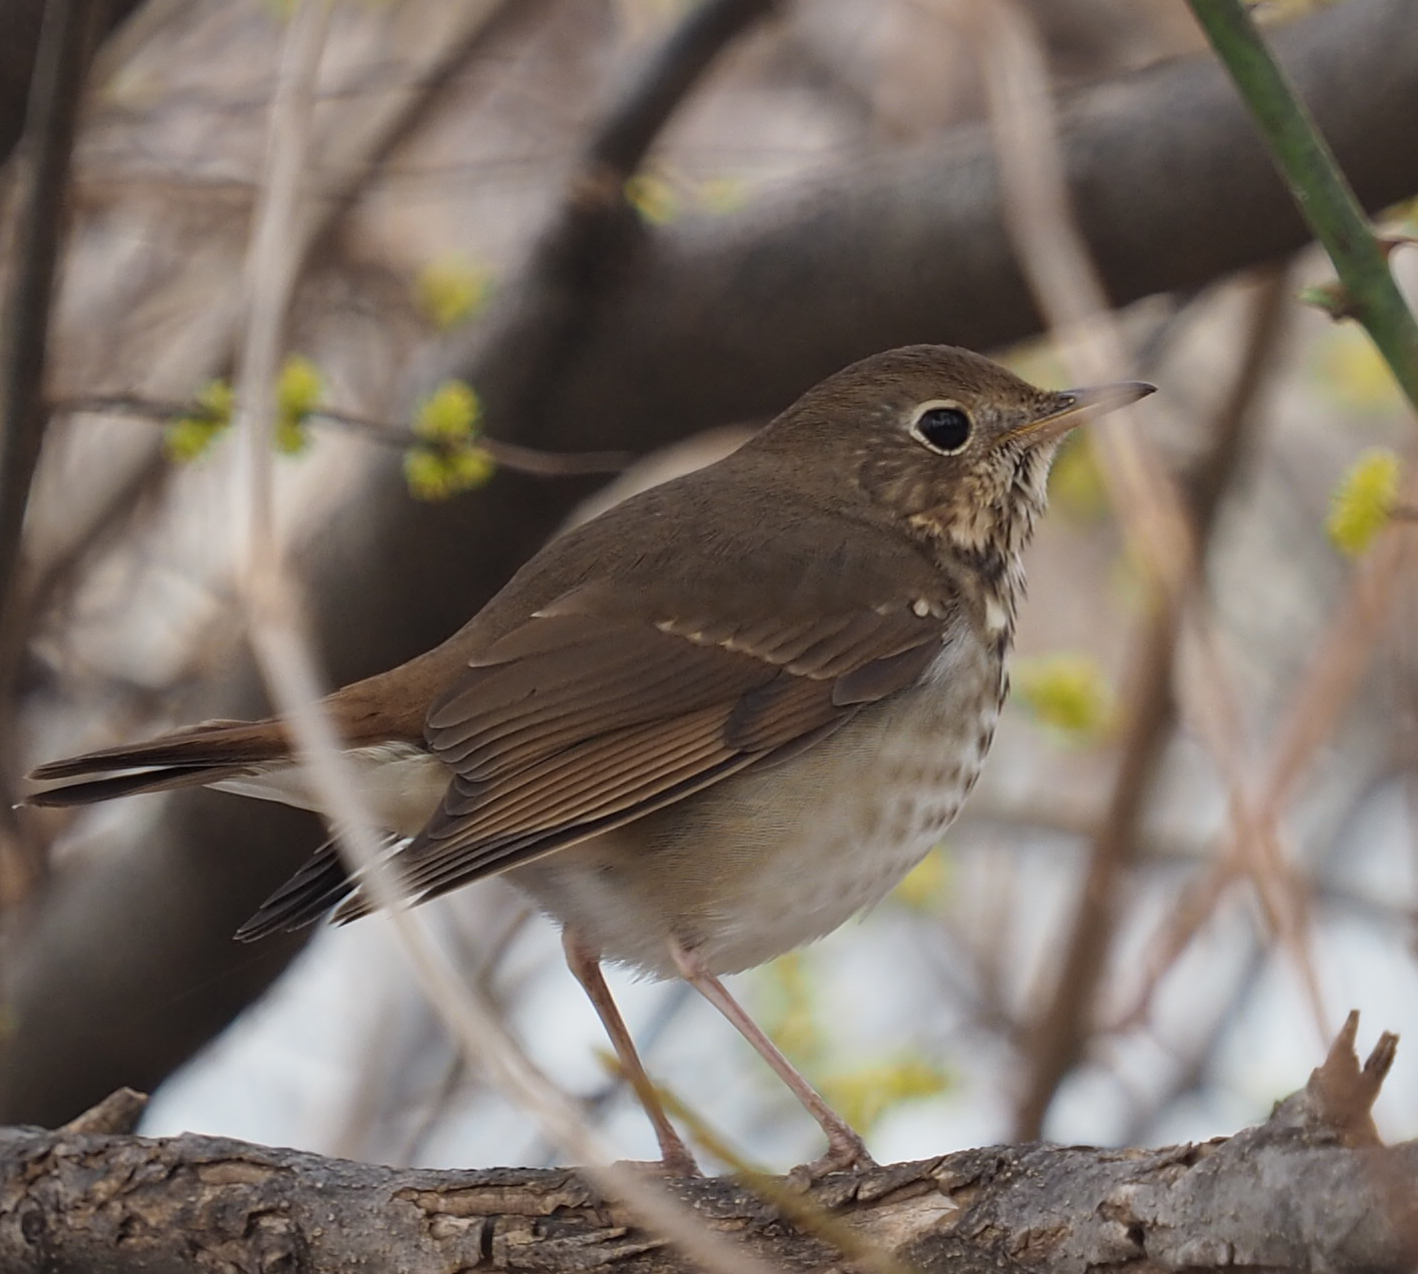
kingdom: Animalia
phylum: Chordata
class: Aves
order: Passeriformes
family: Turdidae
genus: Catharus
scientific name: Catharus guttatus
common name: Hermit thrush
